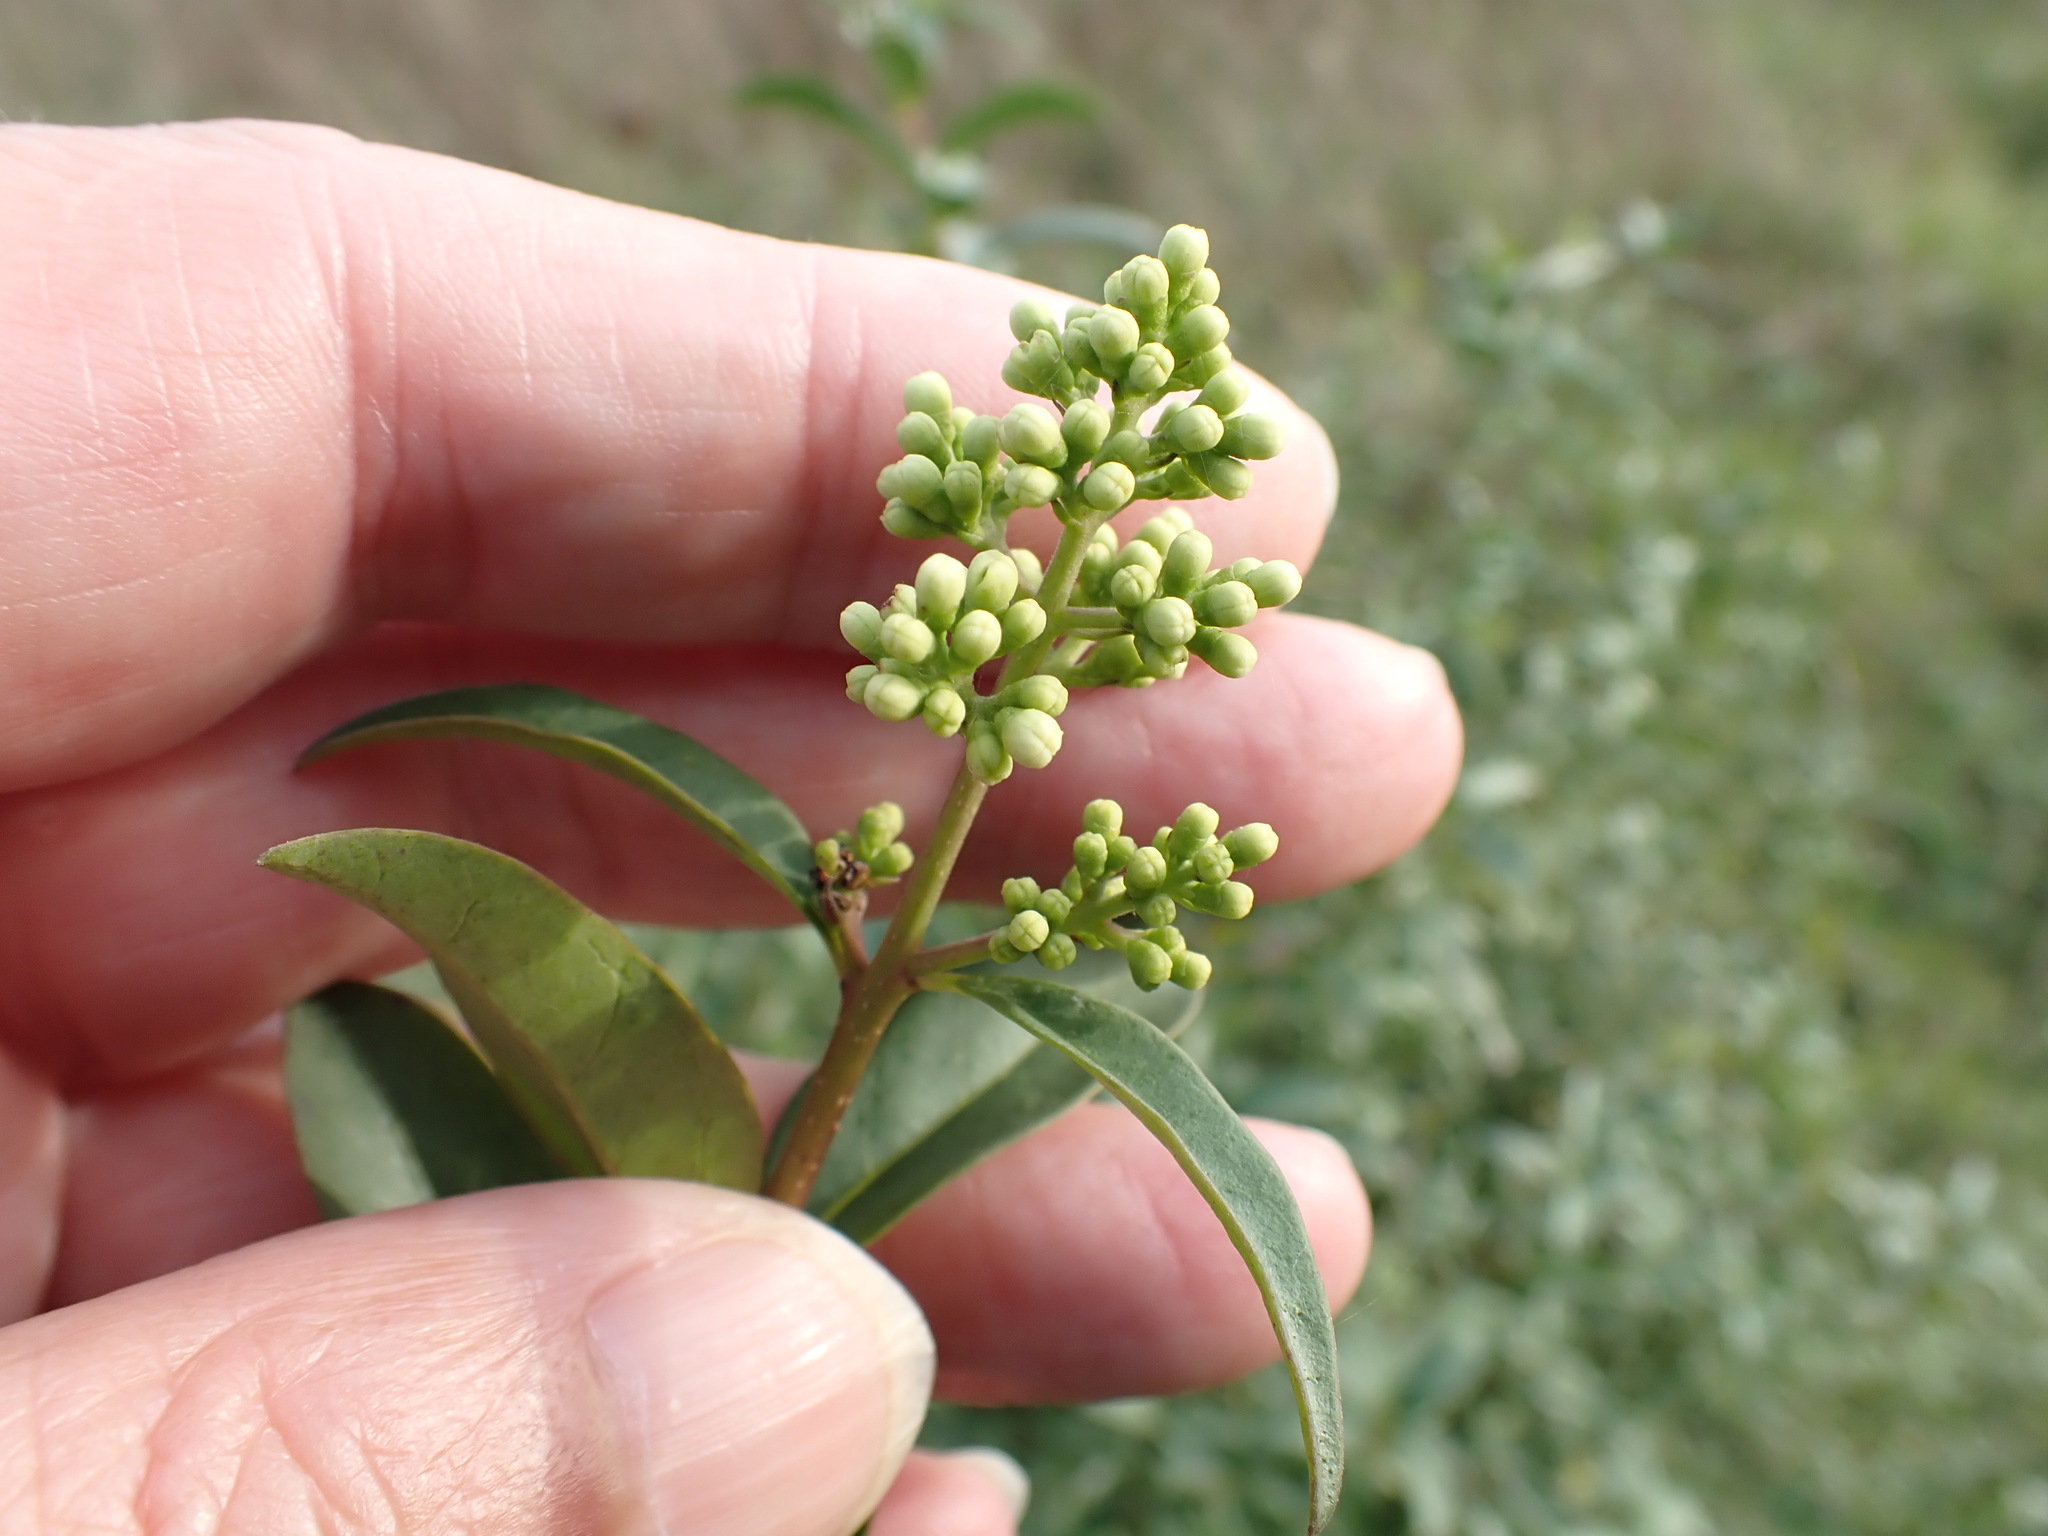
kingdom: Plantae
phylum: Tracheophyta
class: Magnoliopsida
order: Lamiales
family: Oleaceae
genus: Ligustrum
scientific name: Ligustrum vulgare
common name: Wild privet
